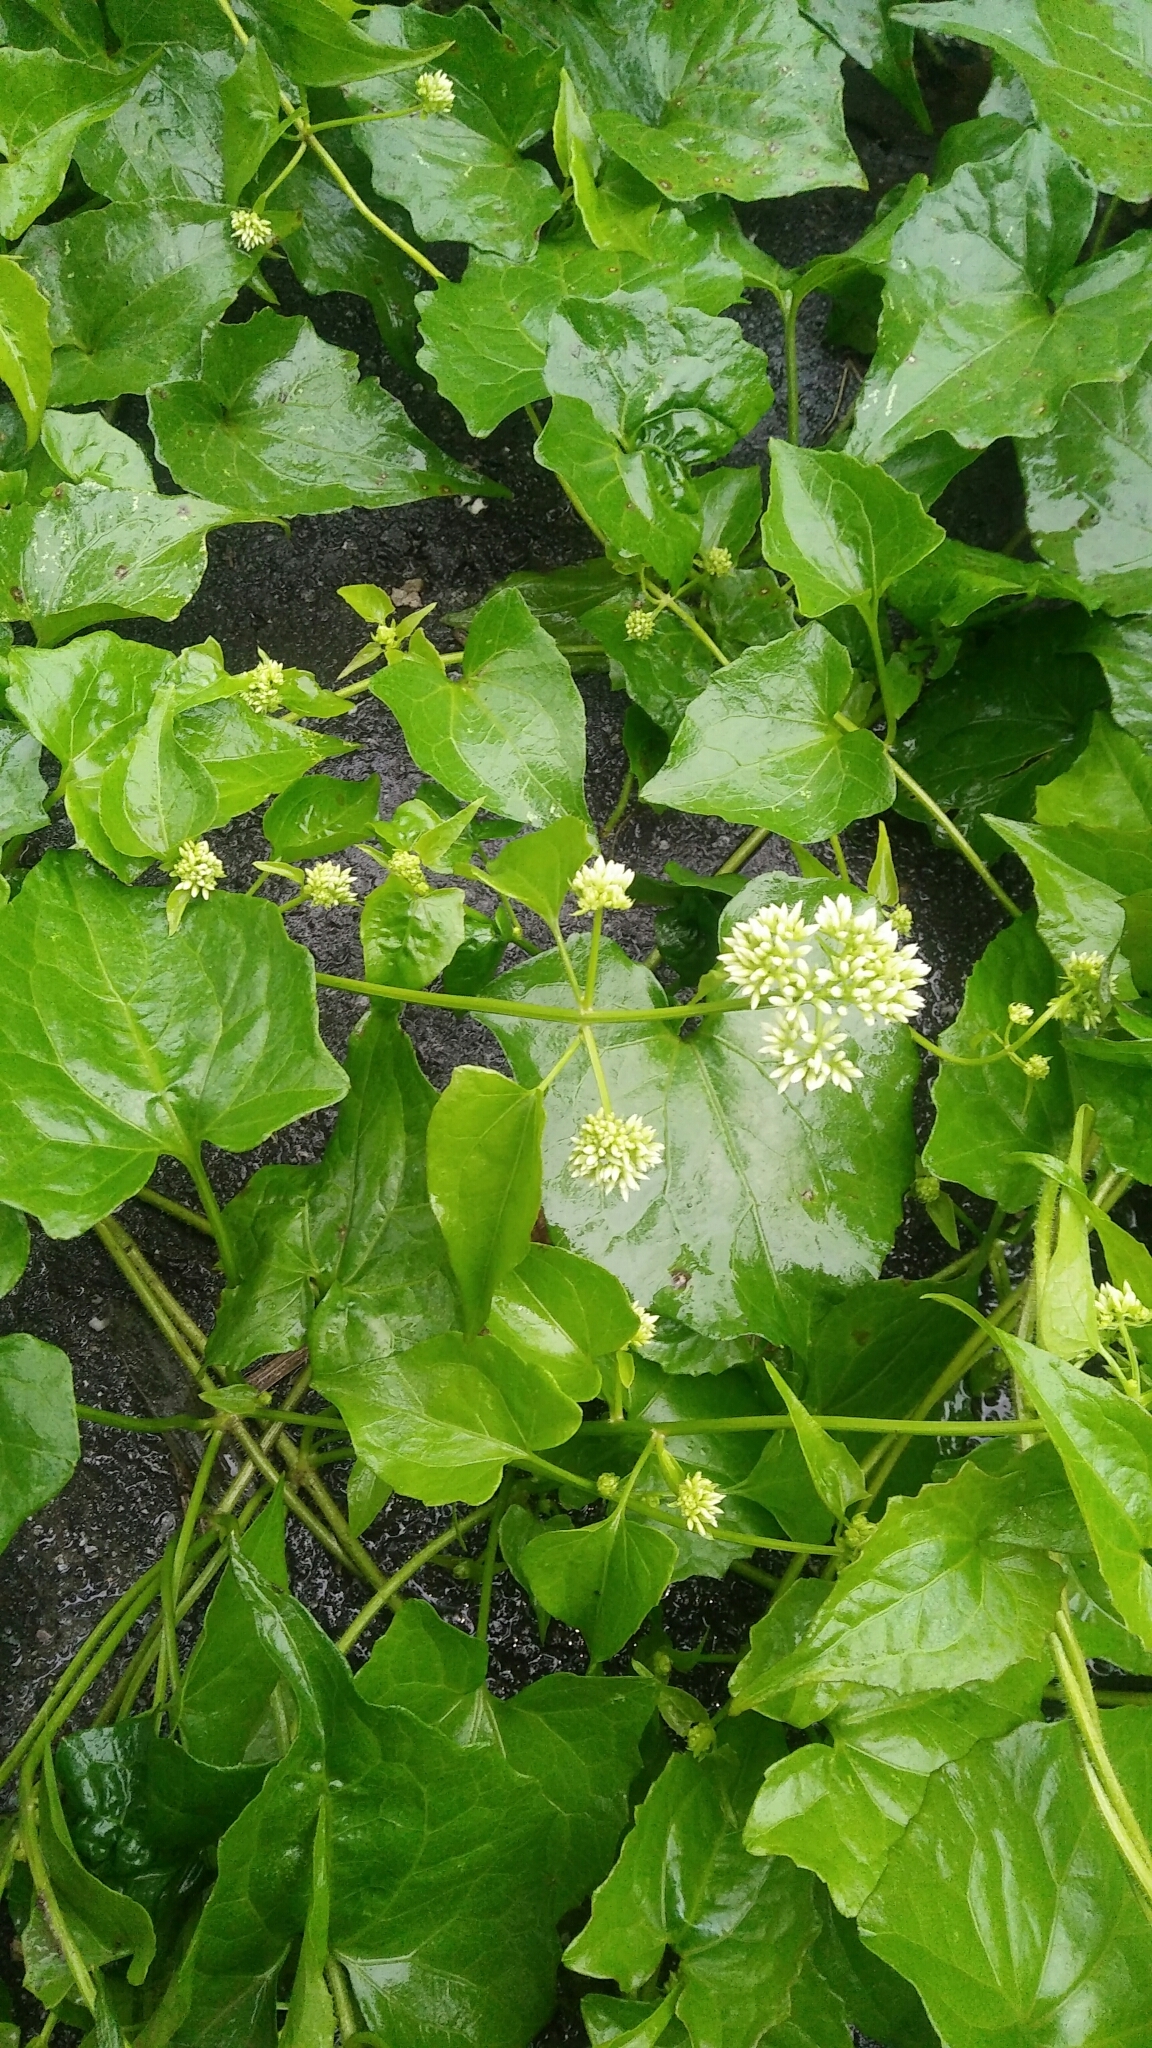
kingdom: Plantae
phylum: Tracheophyta
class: Magnoliopsida
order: Asterales
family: Asteraceae
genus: Mikania
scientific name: Mikania micrantha
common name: Mile-a-minute
